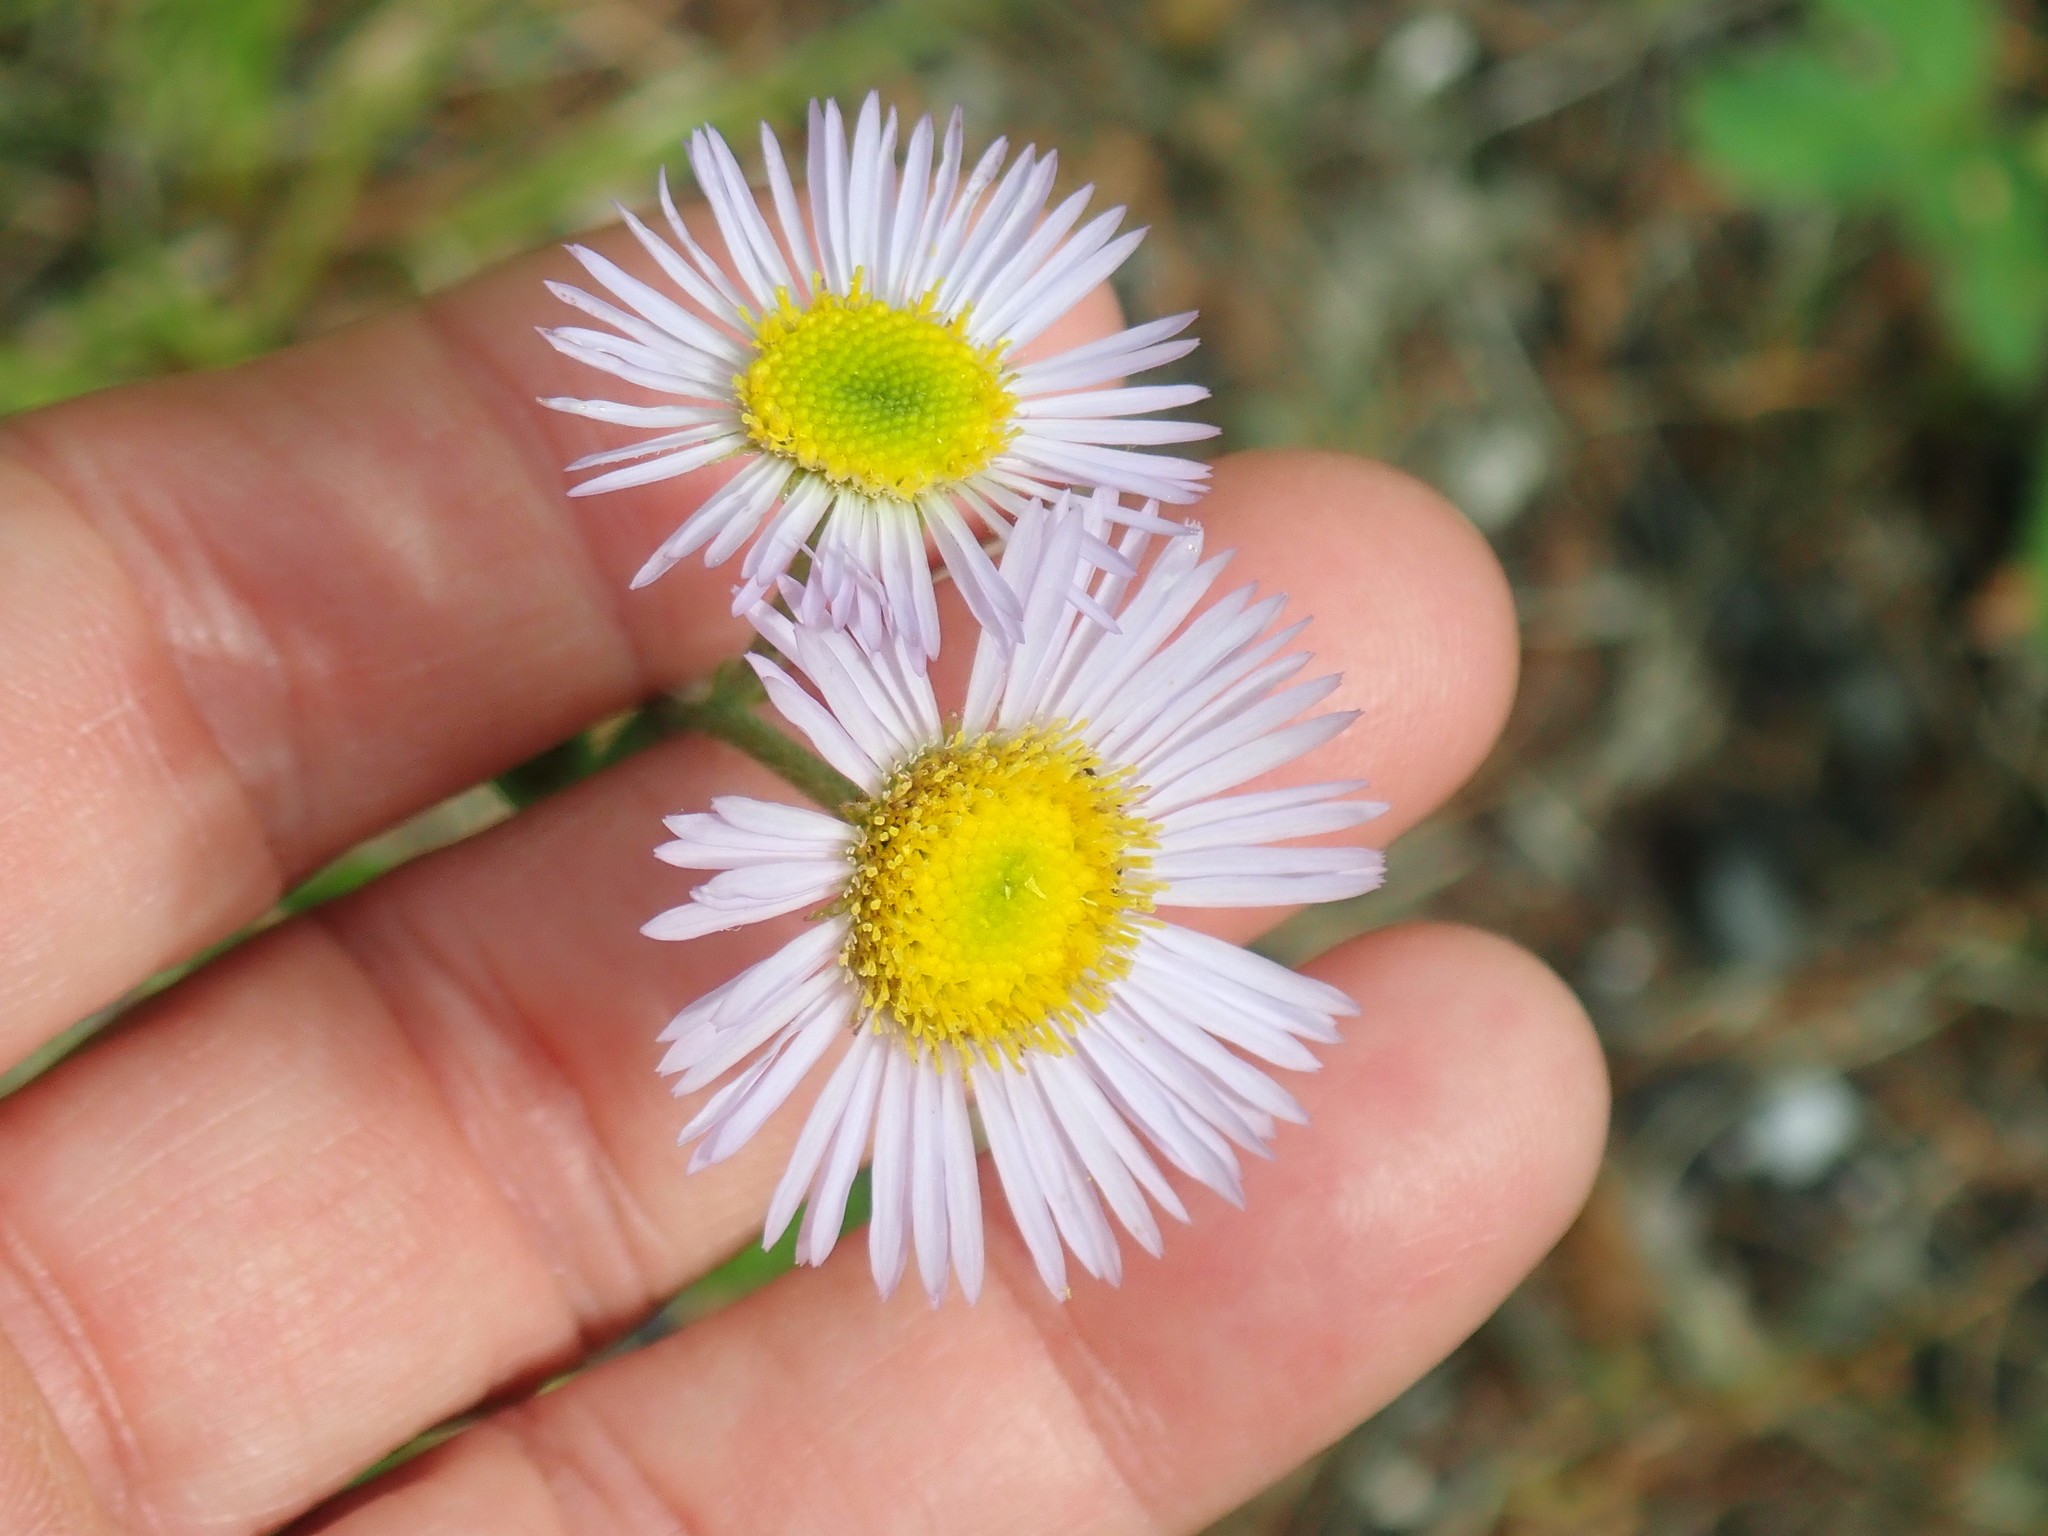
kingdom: Plantae
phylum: Tracheophyta
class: Magnoliopsida
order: Asterales
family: Asteraceae
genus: Erigeron
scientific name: Erigeron pulchellus
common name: Hairy fleabane
